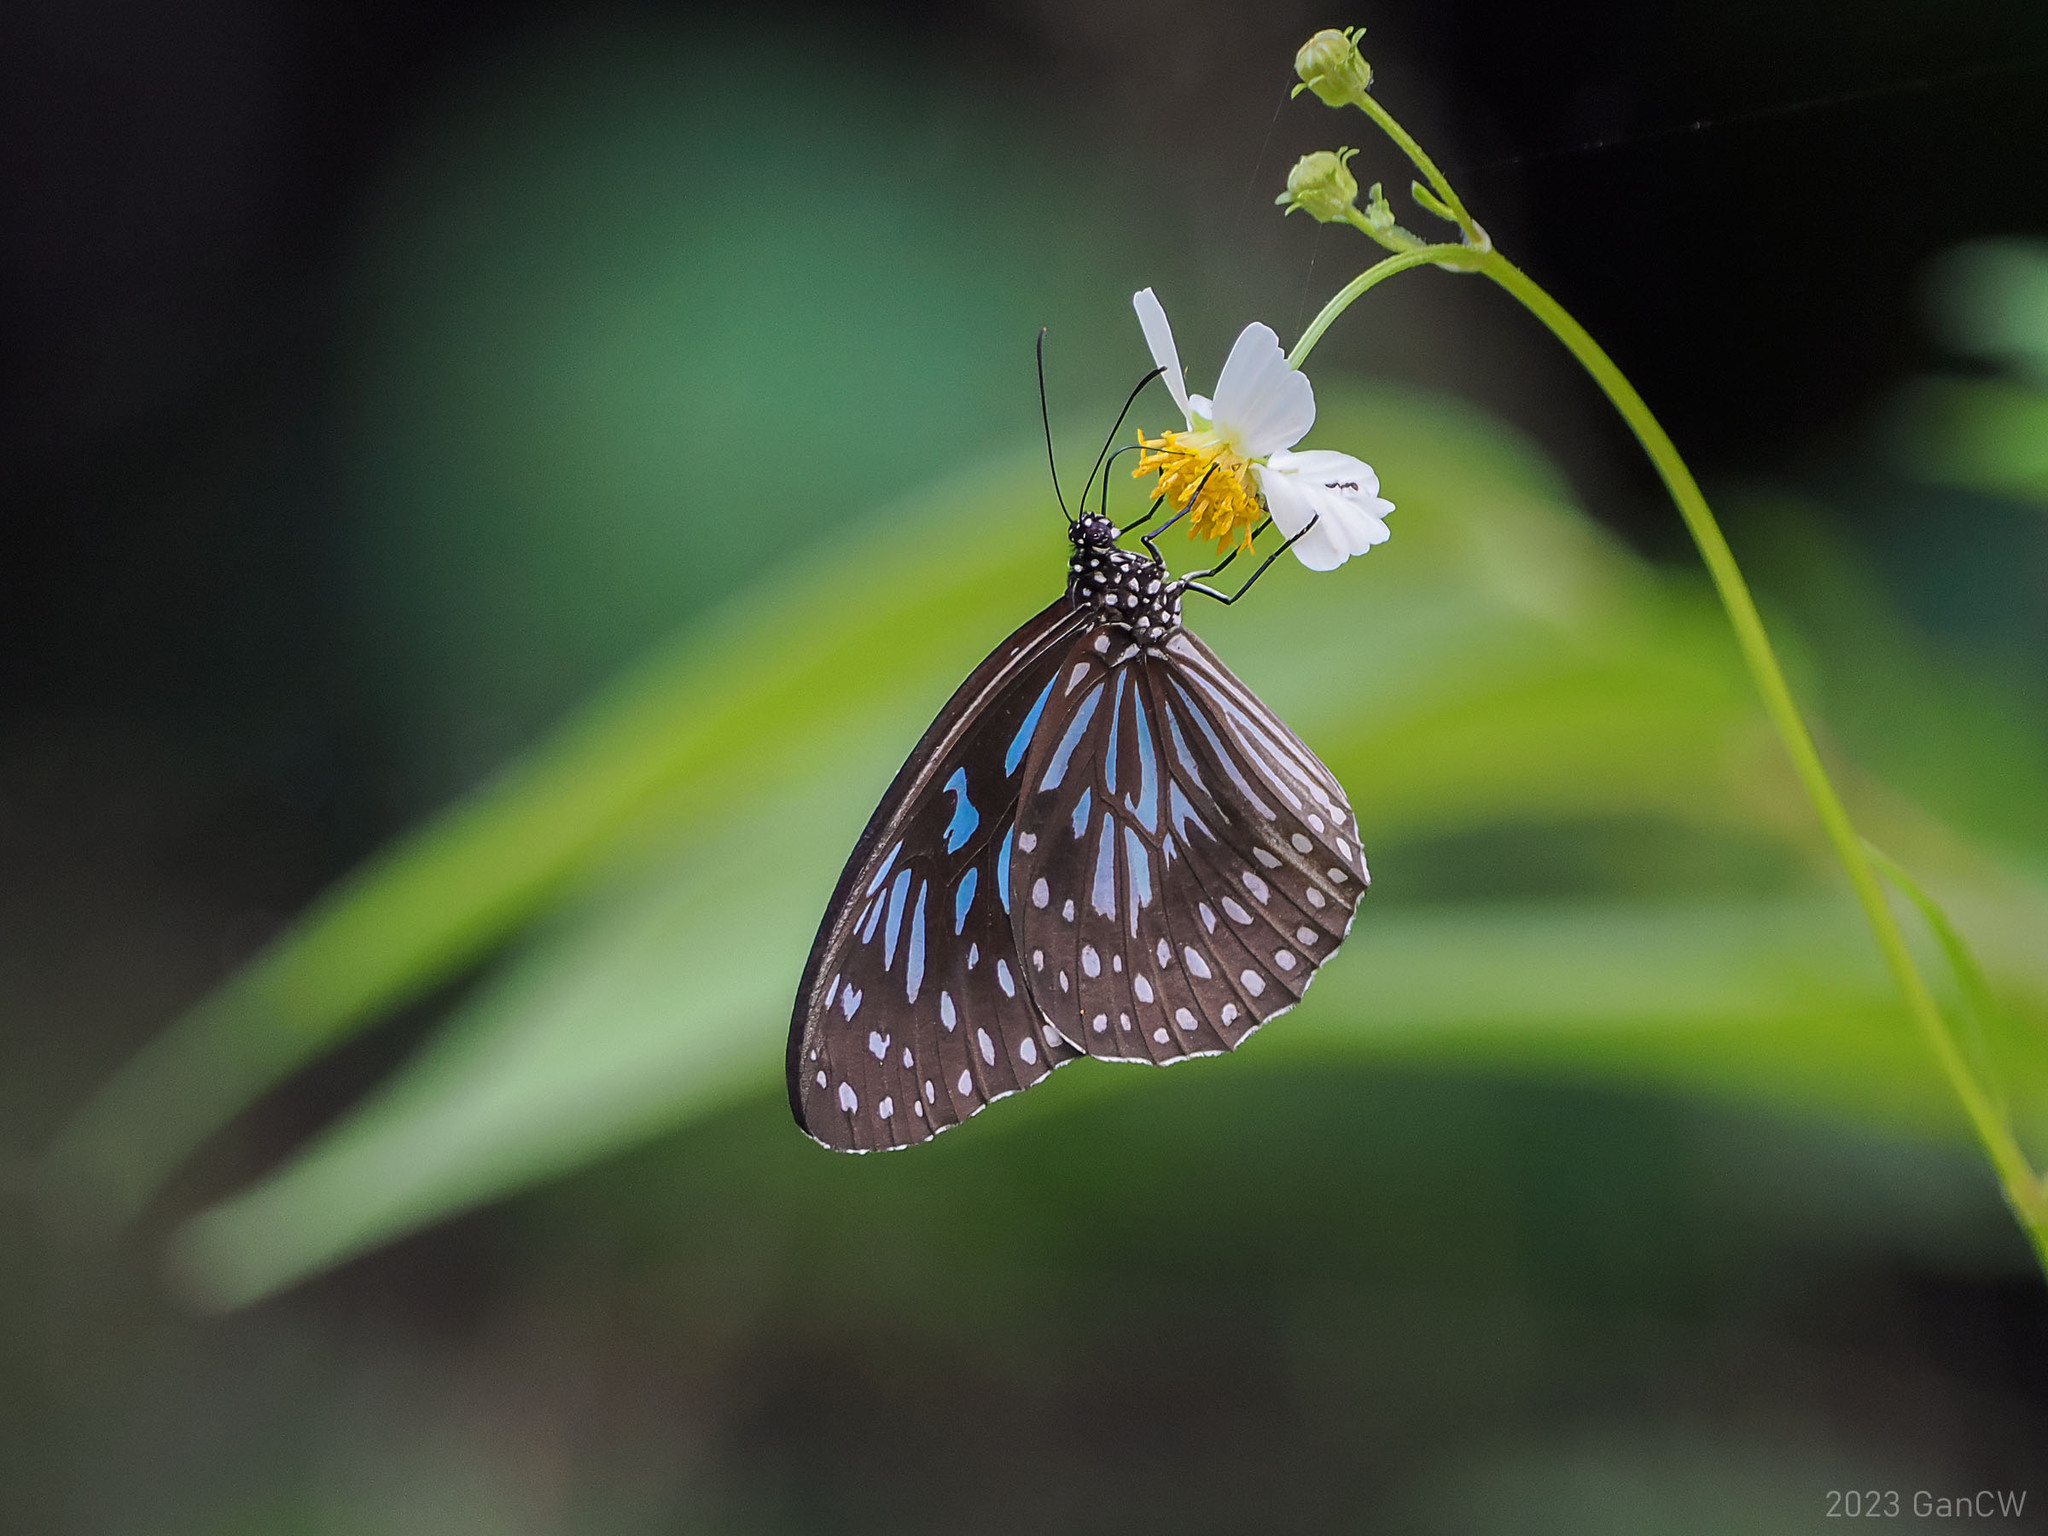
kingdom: Animalia
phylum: Arthropoda
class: Insecta
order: Lepidoptera
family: Nymphalidae
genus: Tirumala
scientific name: Tirumala hamata
